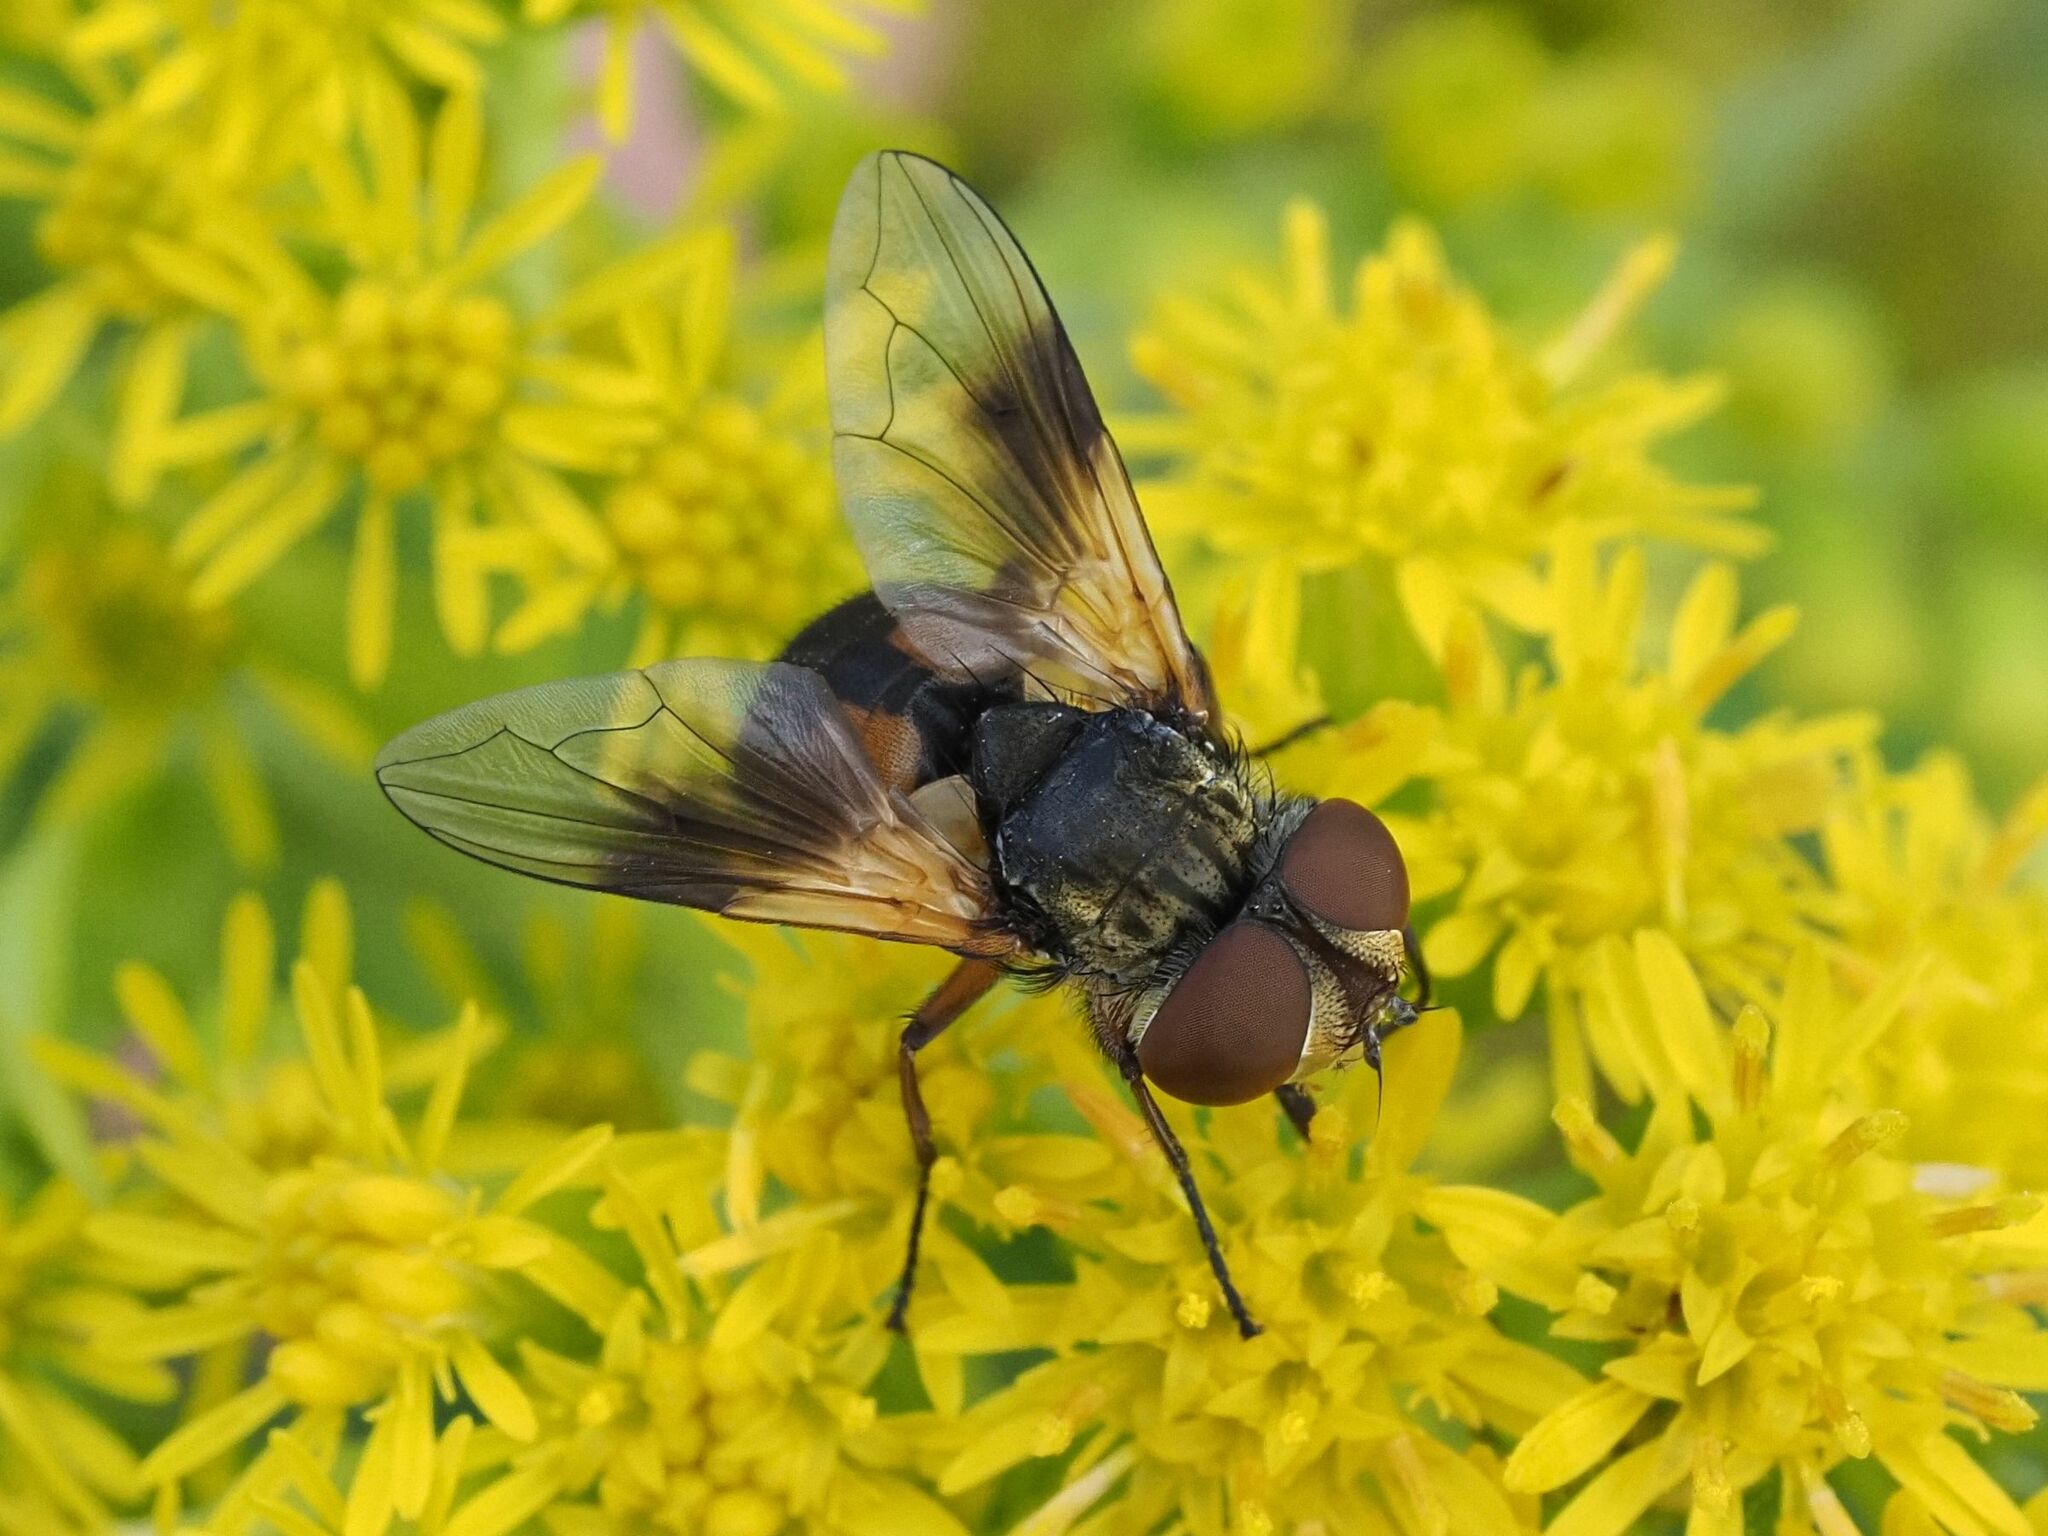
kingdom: Animalia
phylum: Arthropoda
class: Insecta
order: Diptera
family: Tachinidae
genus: Ectophasia
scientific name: Ectophasia crassipennis
